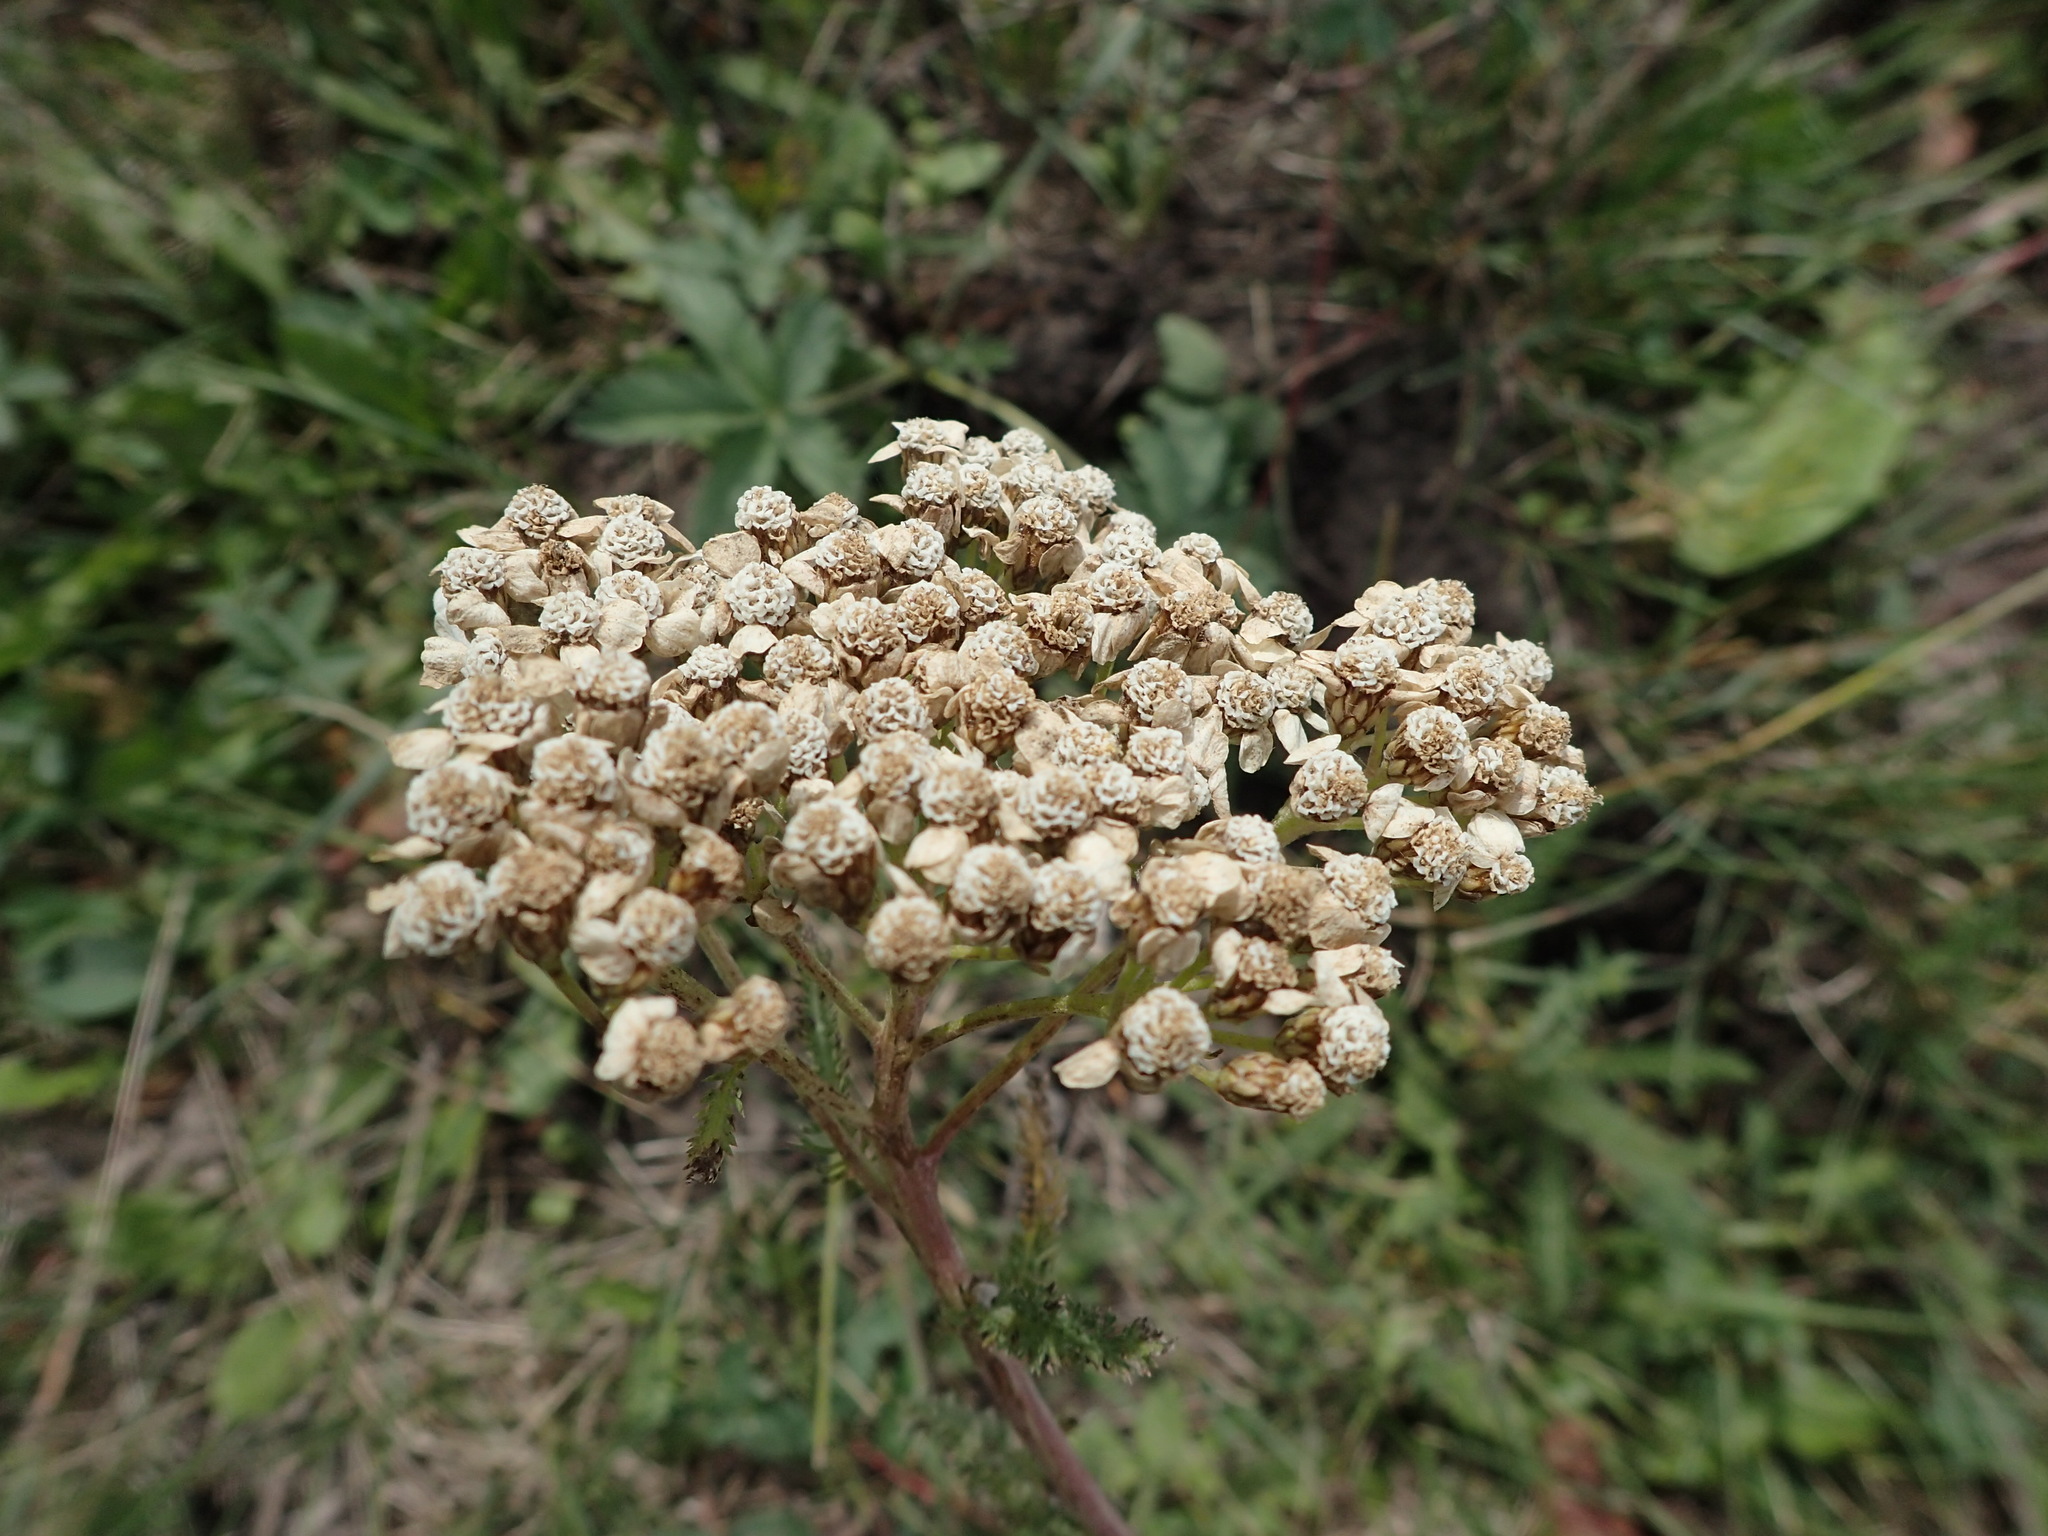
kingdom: Plantae
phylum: Tracheophyta
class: Magnoliopsida
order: Asterales
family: Asteraceae
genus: Achillea
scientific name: Achillea millefolium
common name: Yarrow
